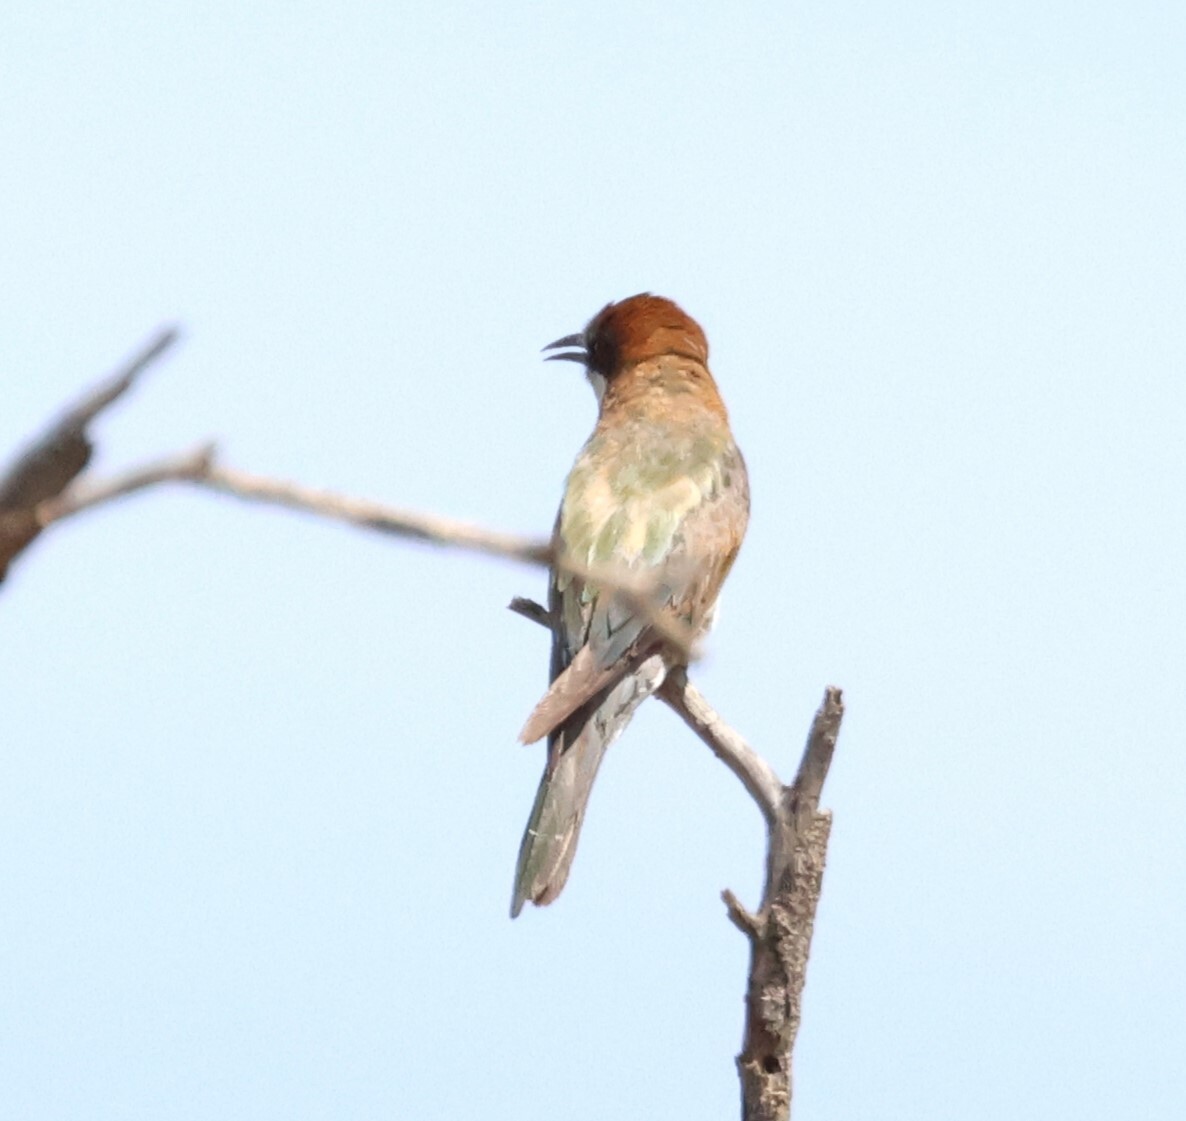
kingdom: Animalia
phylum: Chordata
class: Aves
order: Coraciiformes
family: Meropidae
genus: Merops
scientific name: Merops apiaster
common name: European bee-eater
